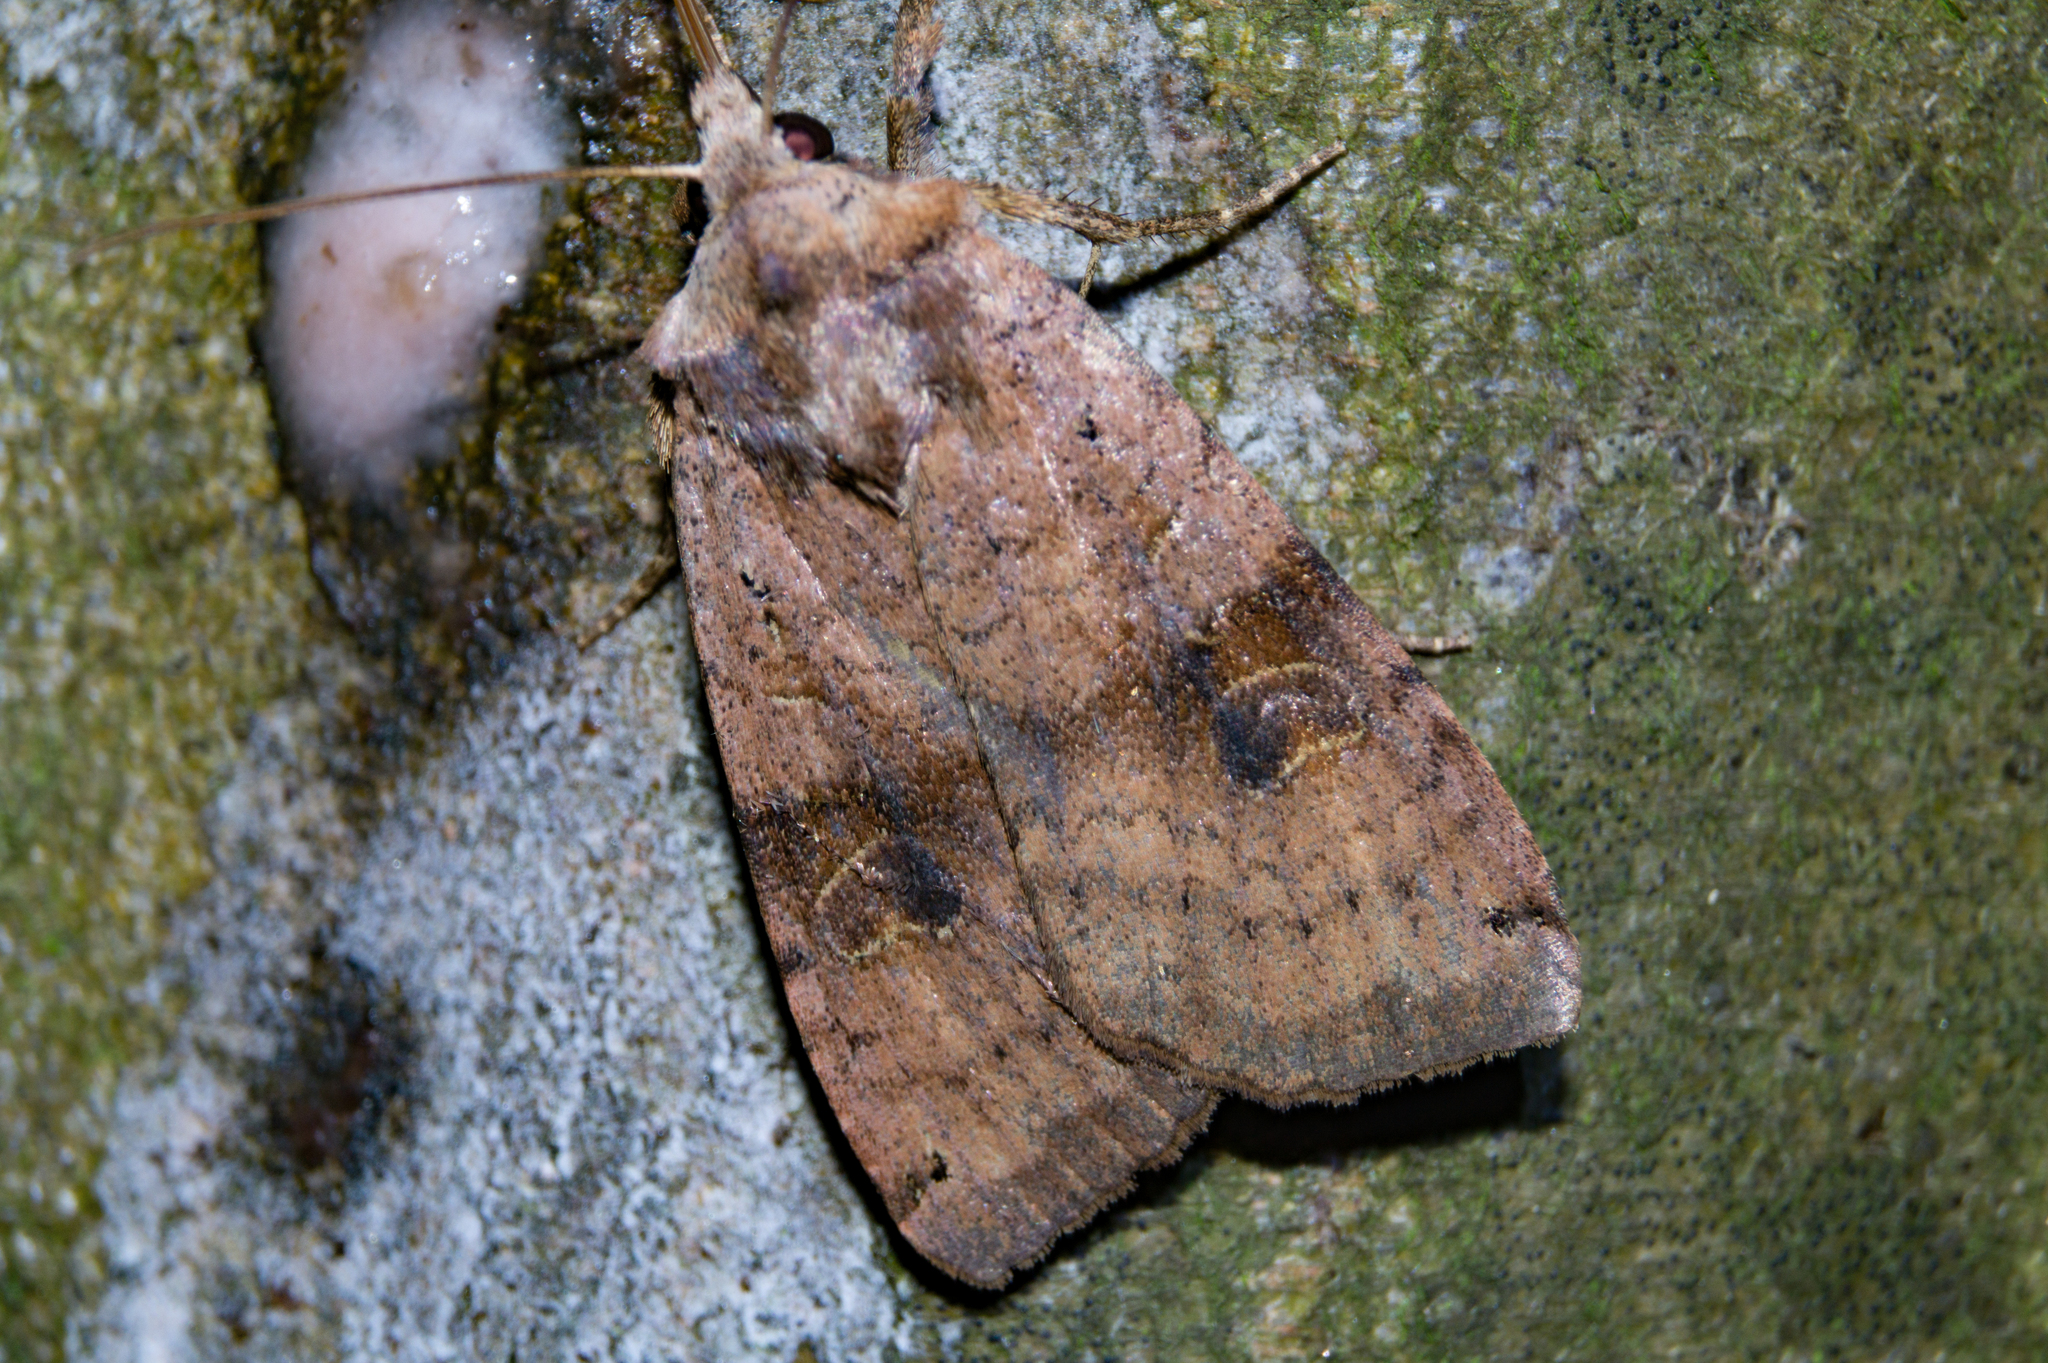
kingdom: Animalia
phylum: Arthropoda
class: Insecta
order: Lepidoptera
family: Noctuidae
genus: Xestia
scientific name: Xestia baja
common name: Dotted clay
